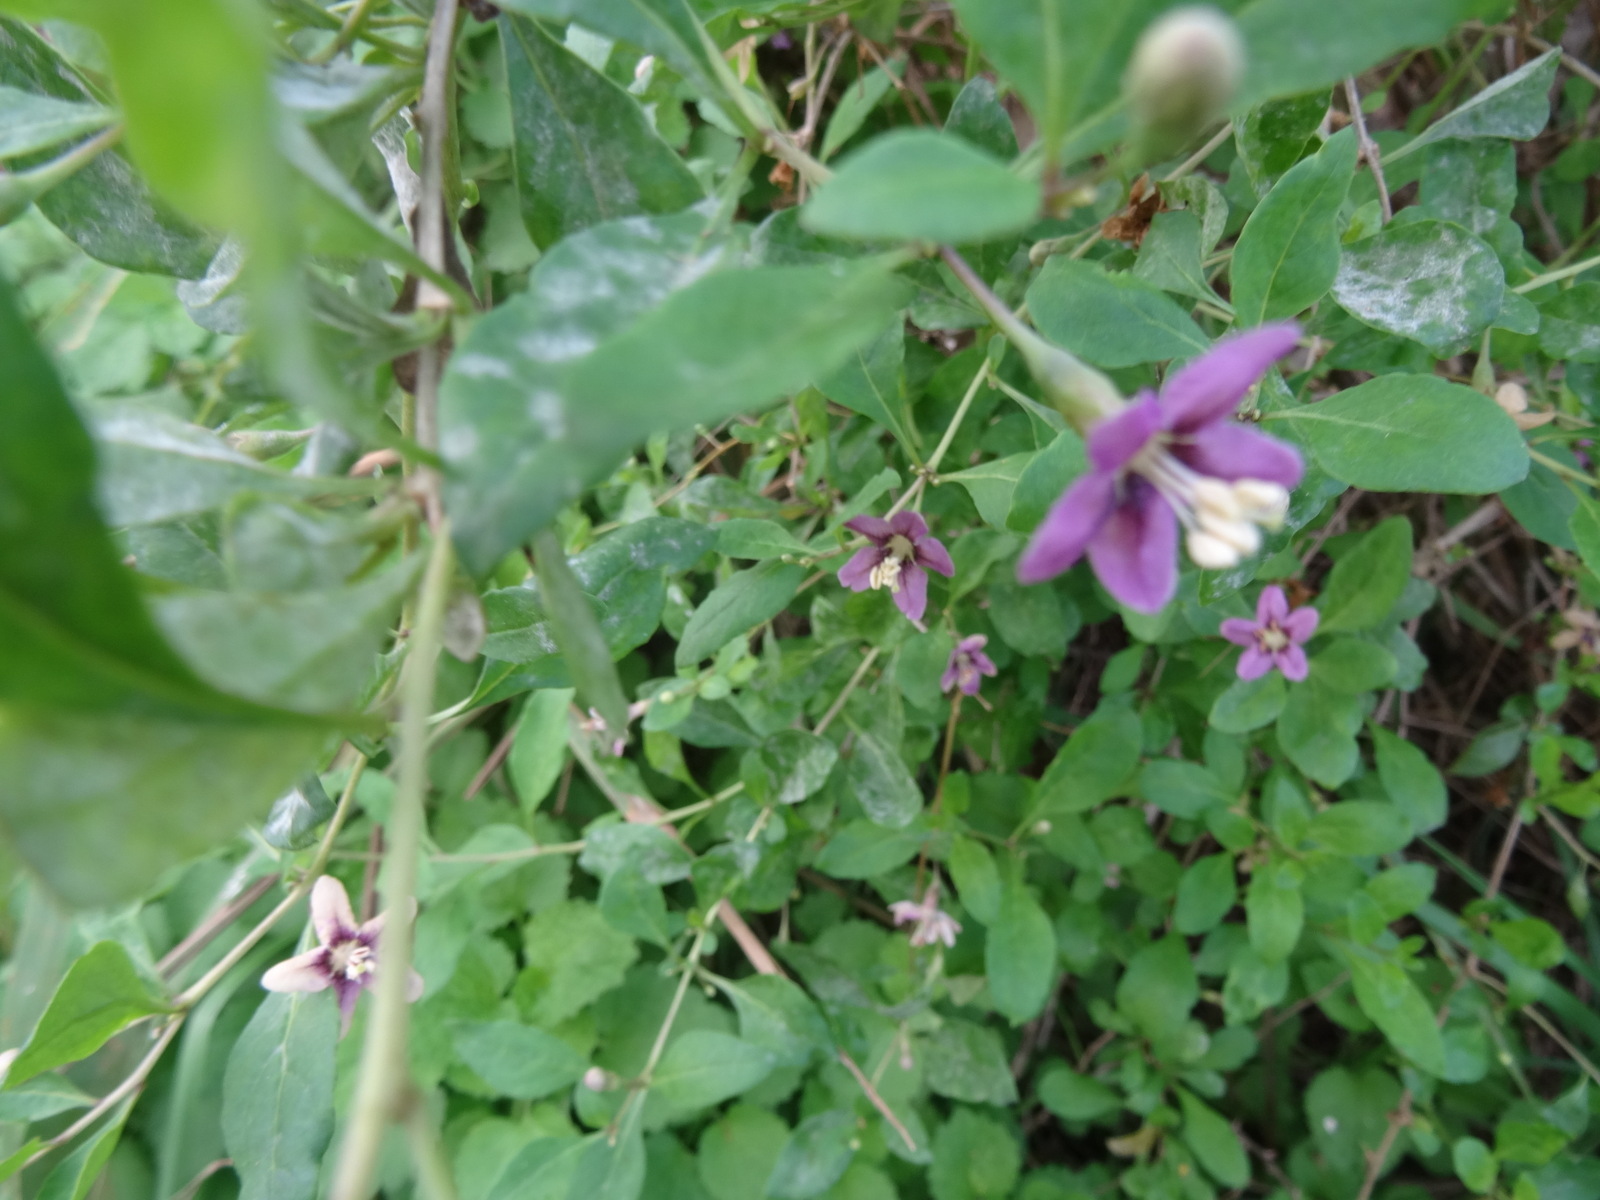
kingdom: Plantae
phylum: Tracheophyta
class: Magnoliopsida
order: Solanales
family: Solanaceae
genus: Lycium
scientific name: Lycium barbarum
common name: Duke of argyll's teaplant
